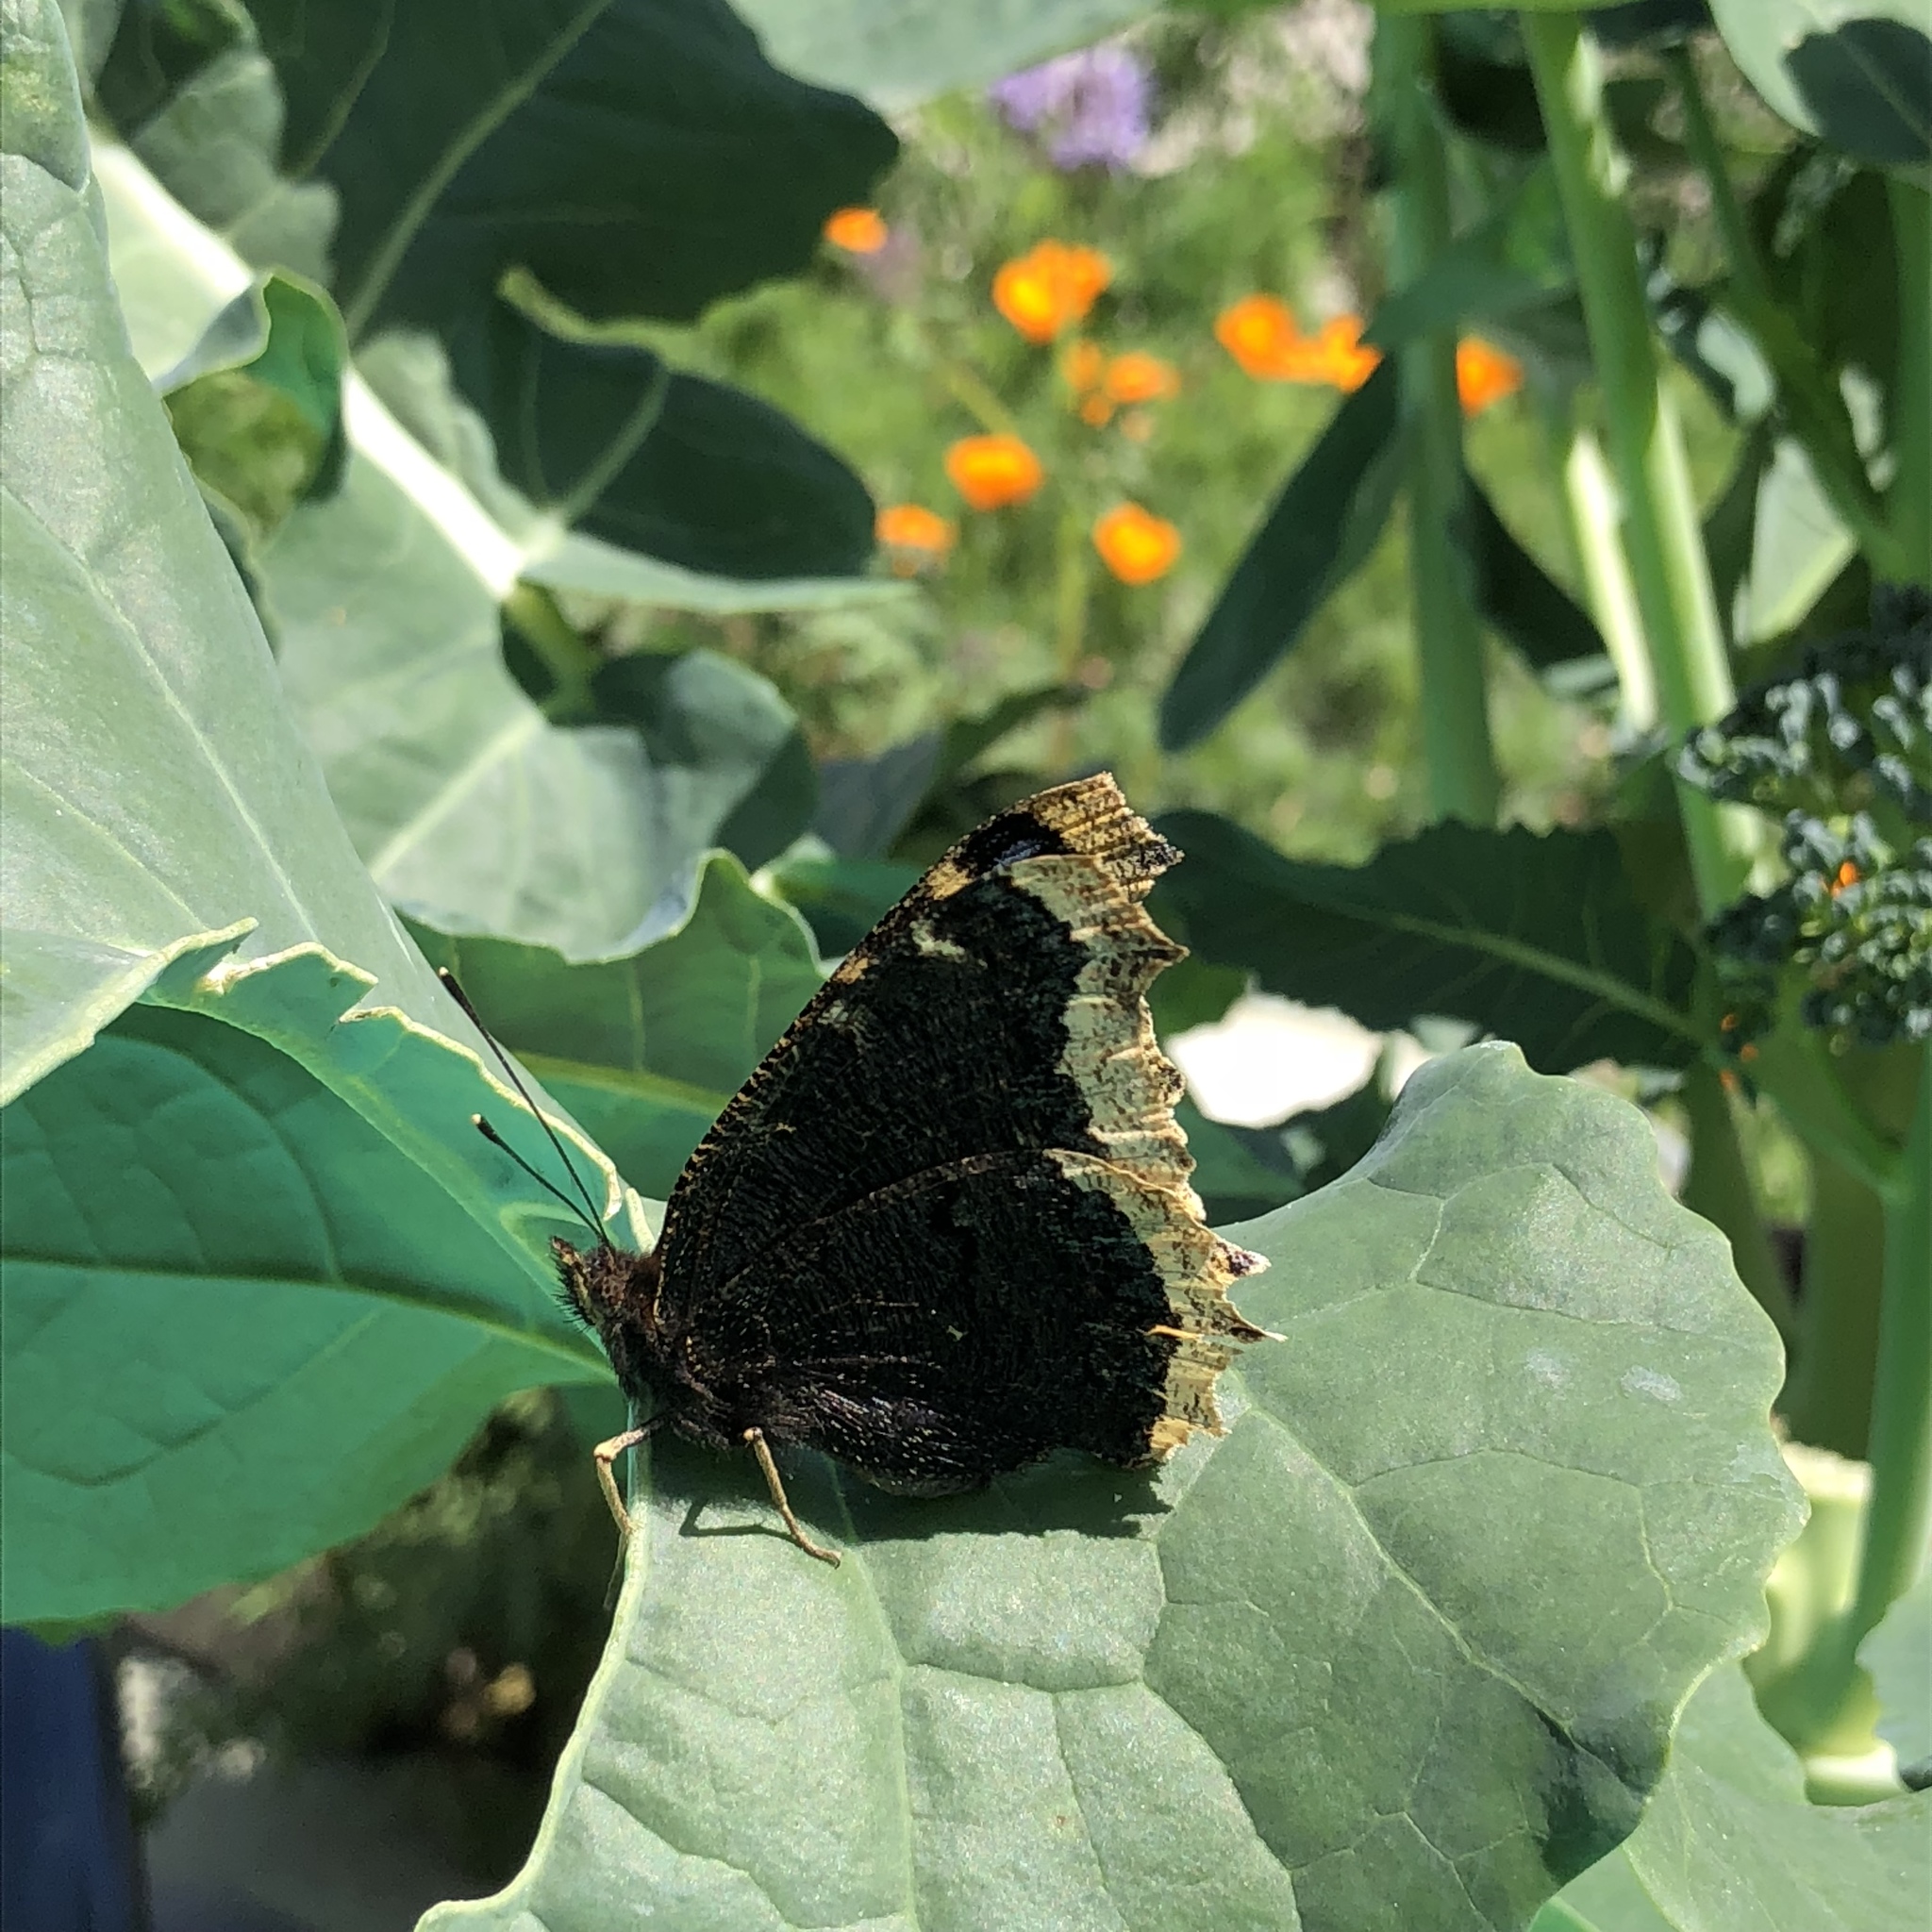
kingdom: Animalia
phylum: Arthropoda
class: Insecta
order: Lepidoptera
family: Nymphalidae
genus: Nymphalis
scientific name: Nymphalis antiopa
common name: Camberwell beauty
